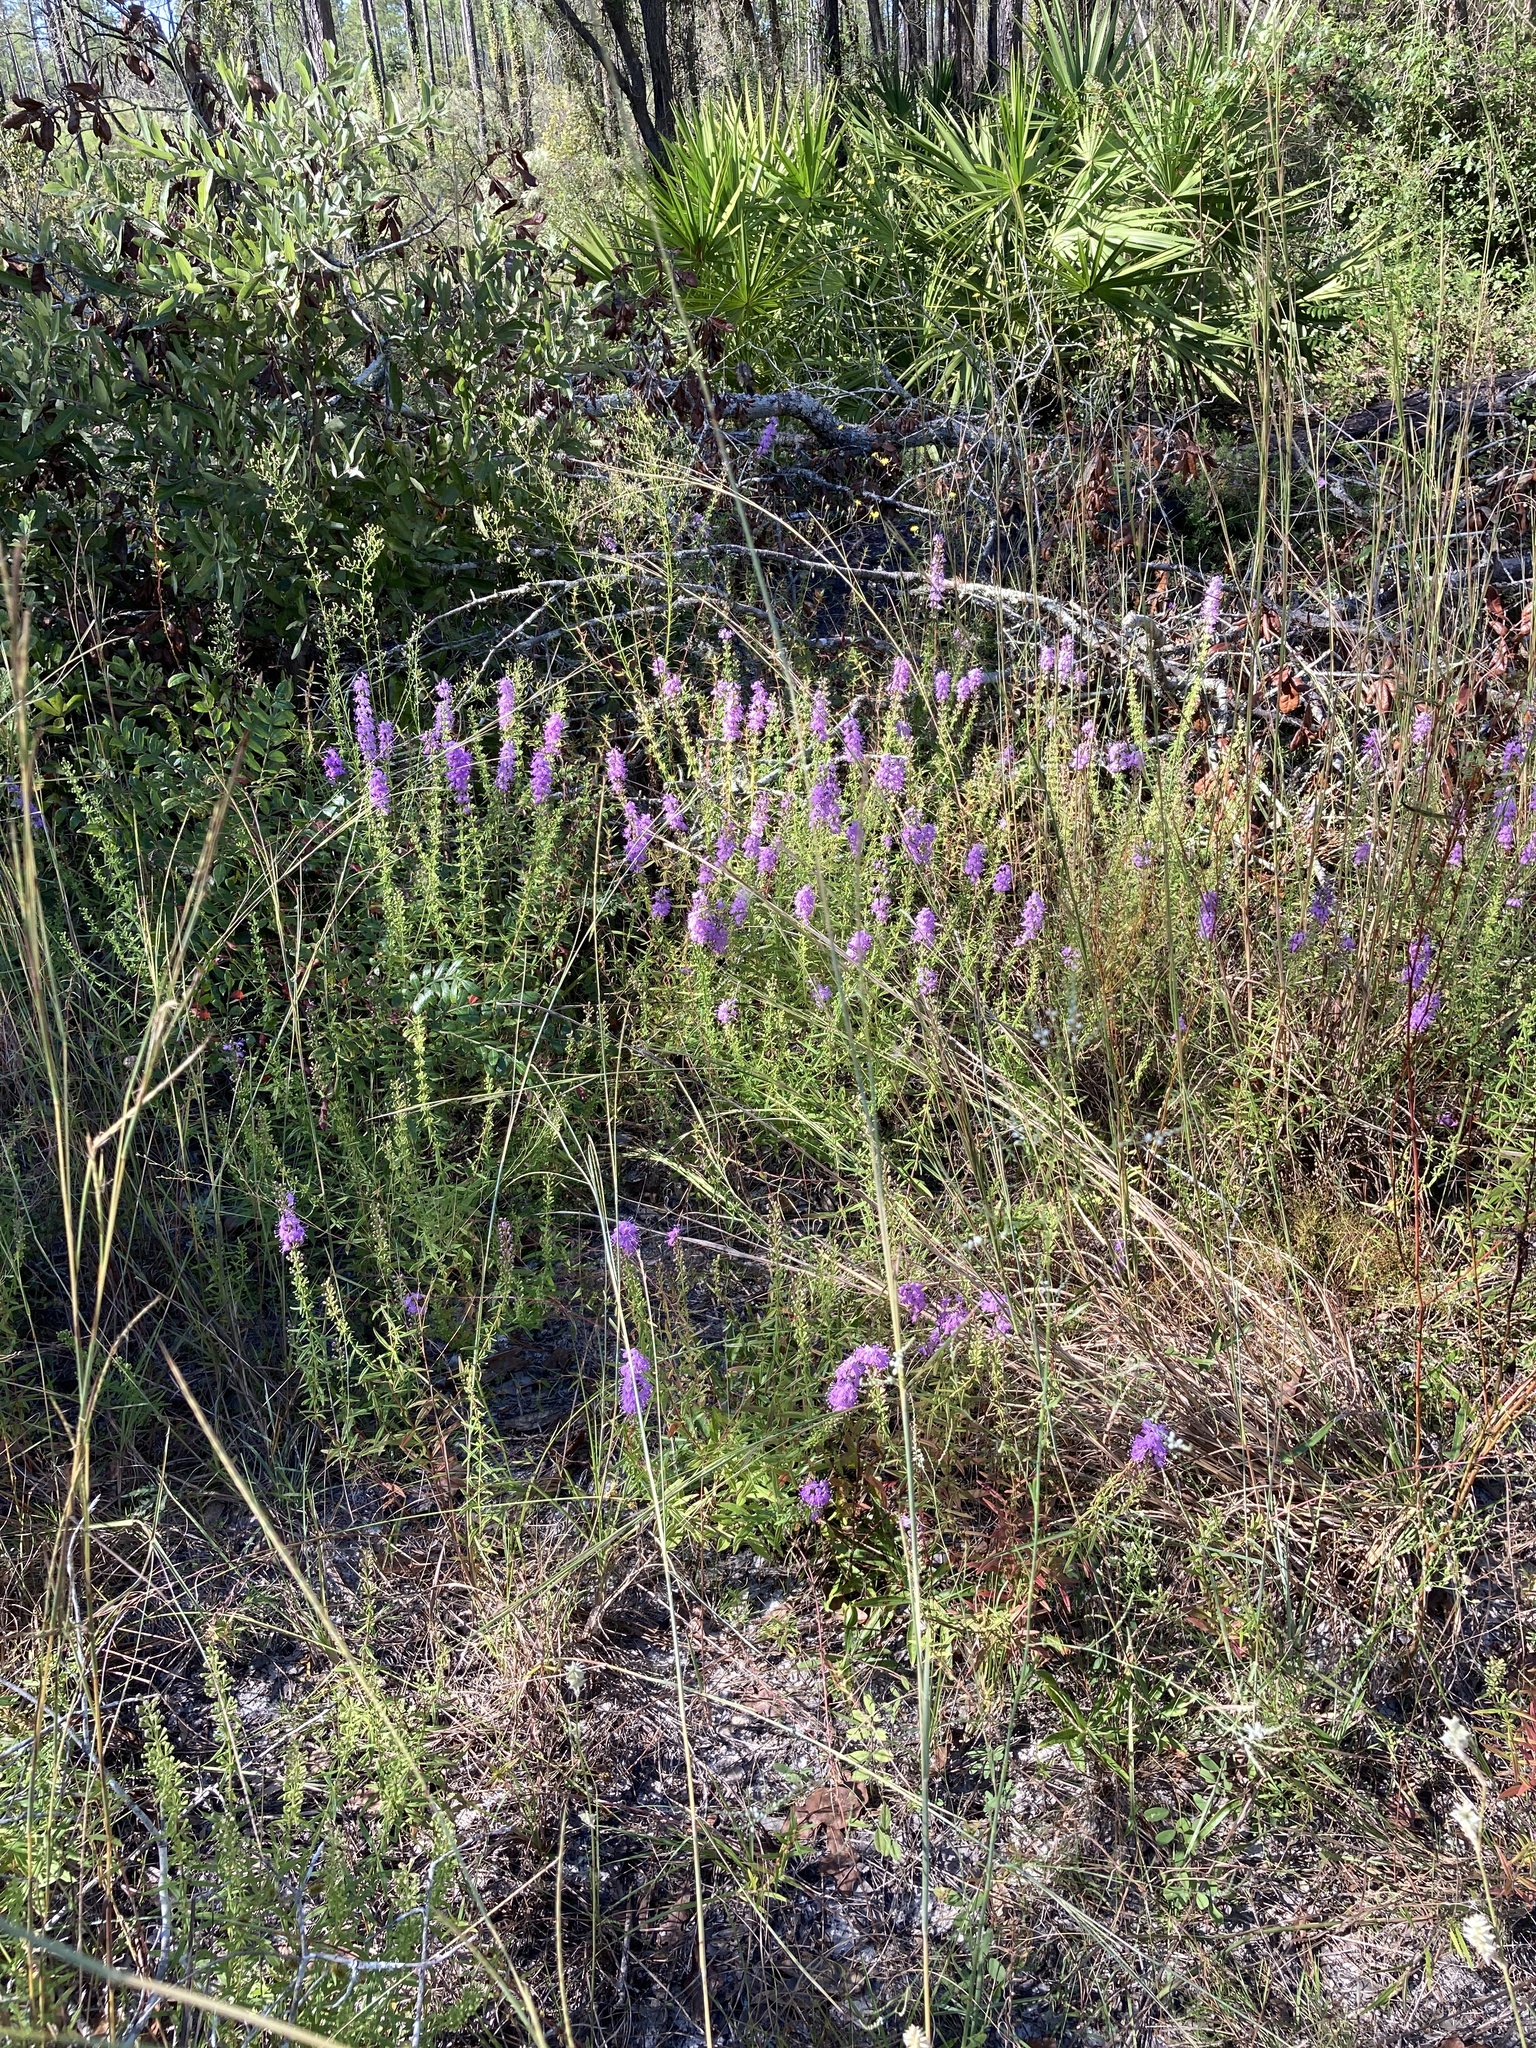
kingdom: Plantae
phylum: Tracheophyta
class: Magnoliopsida
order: Lamiales
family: Lamiaceae
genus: Dicerandra
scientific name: Dicerandra densiflora
